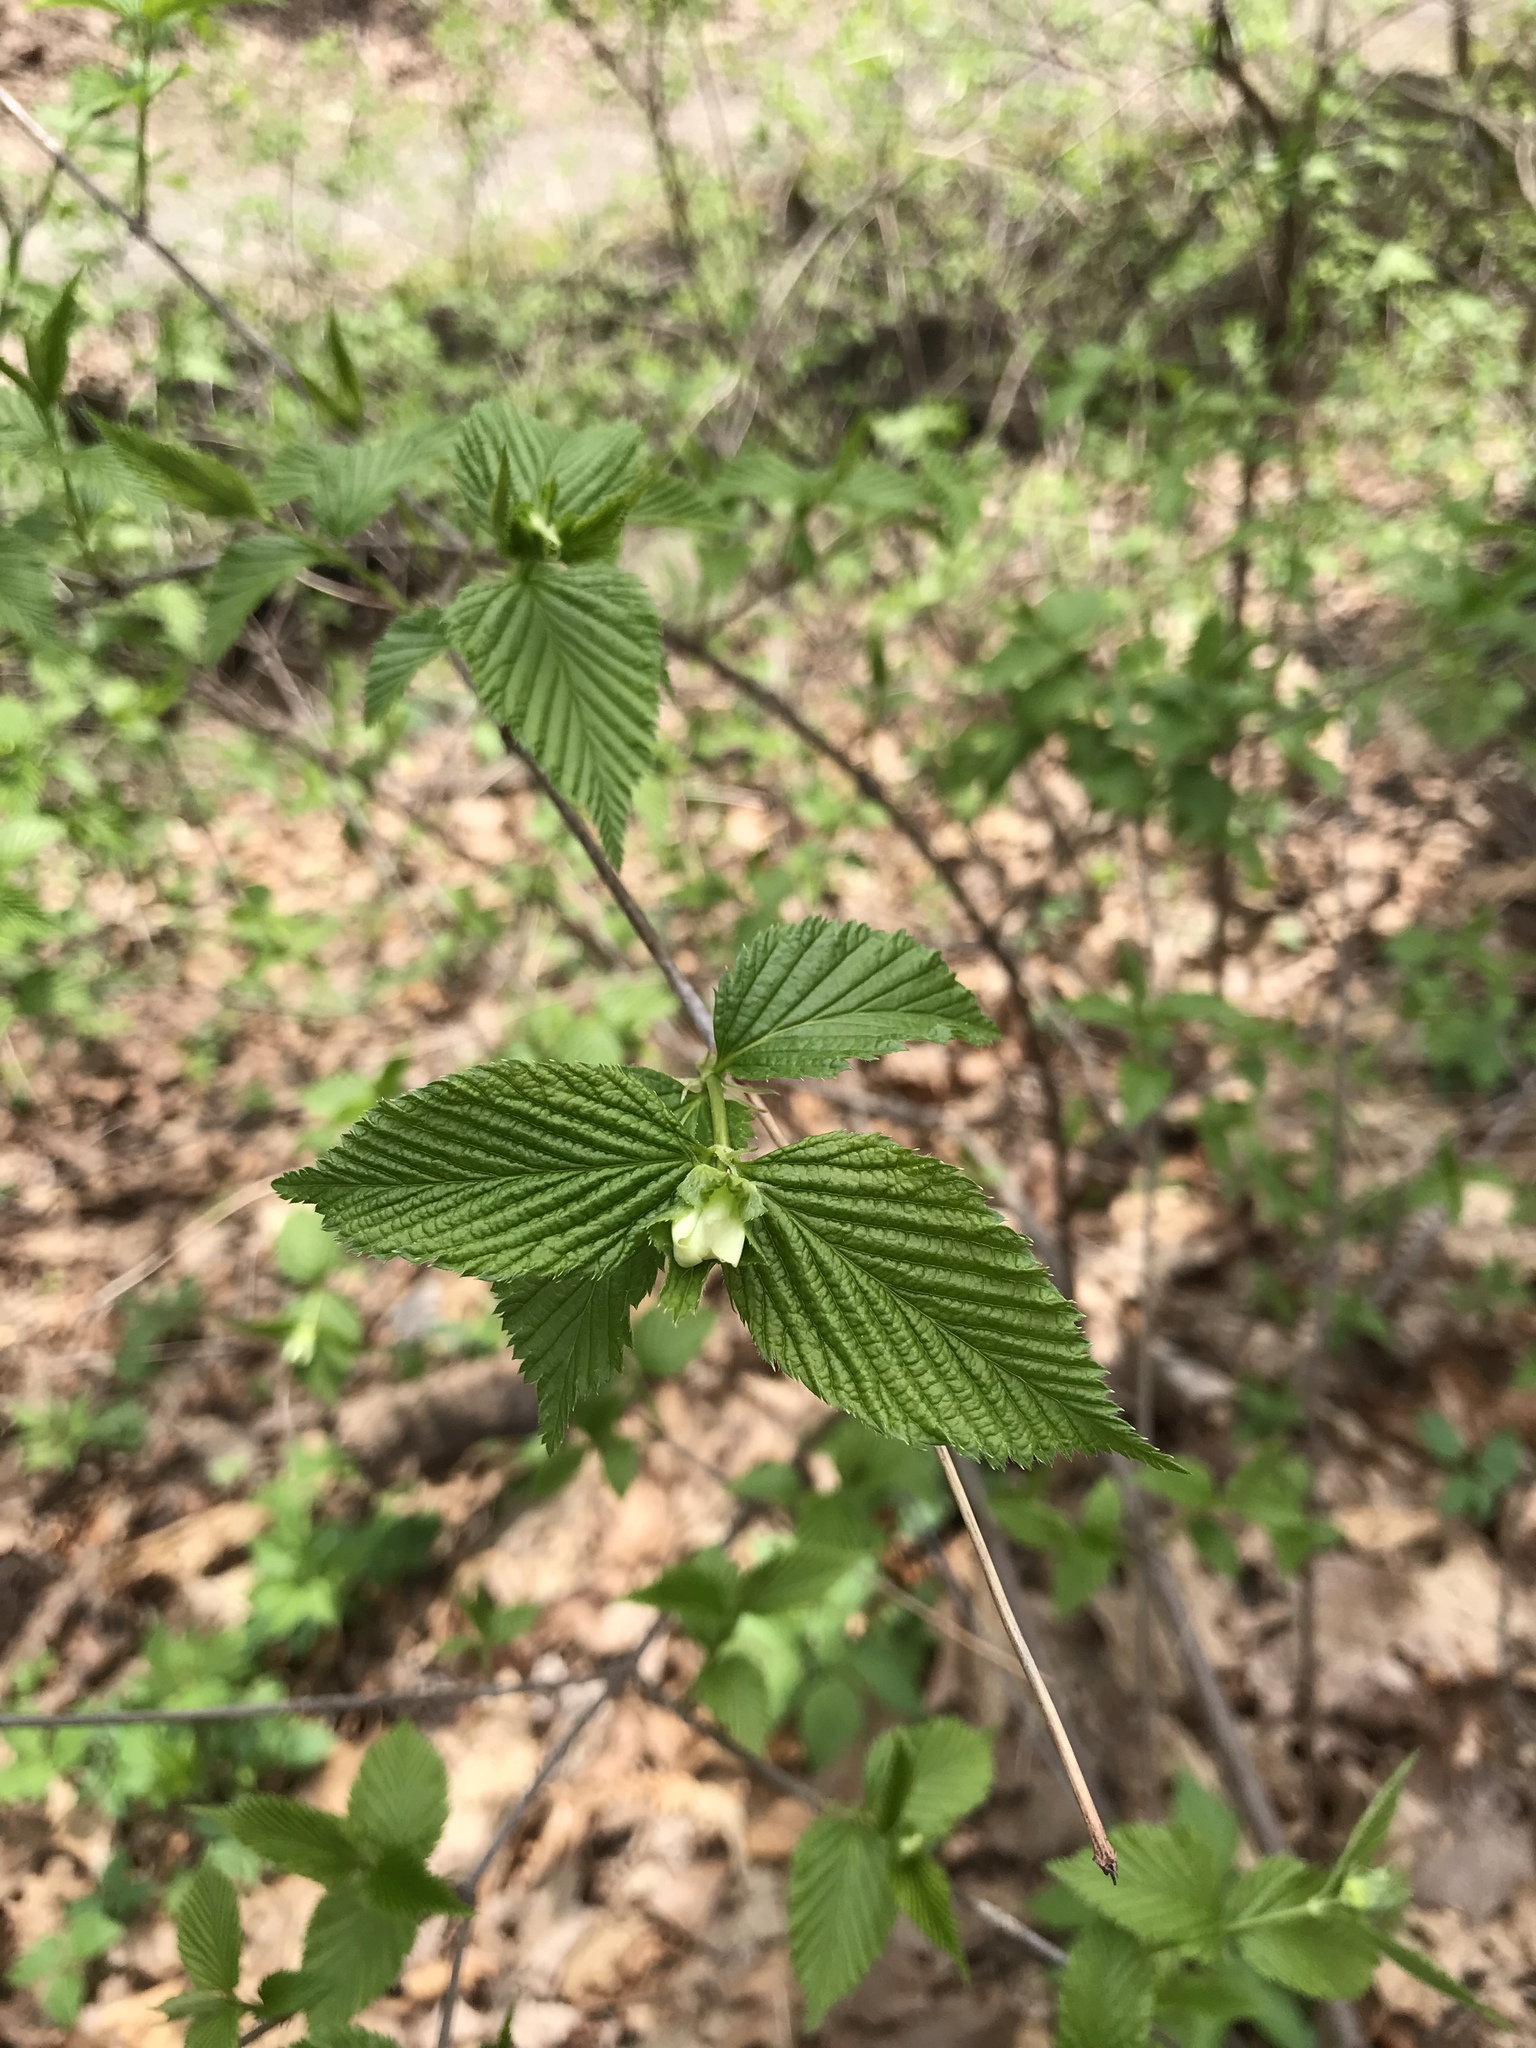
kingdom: Plantae
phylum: Tracheophyta
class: Magnoliopsida
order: Rosales
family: Rosaceae
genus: Rhodotypos
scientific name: Rhodotypos scandens
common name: Jetbead
